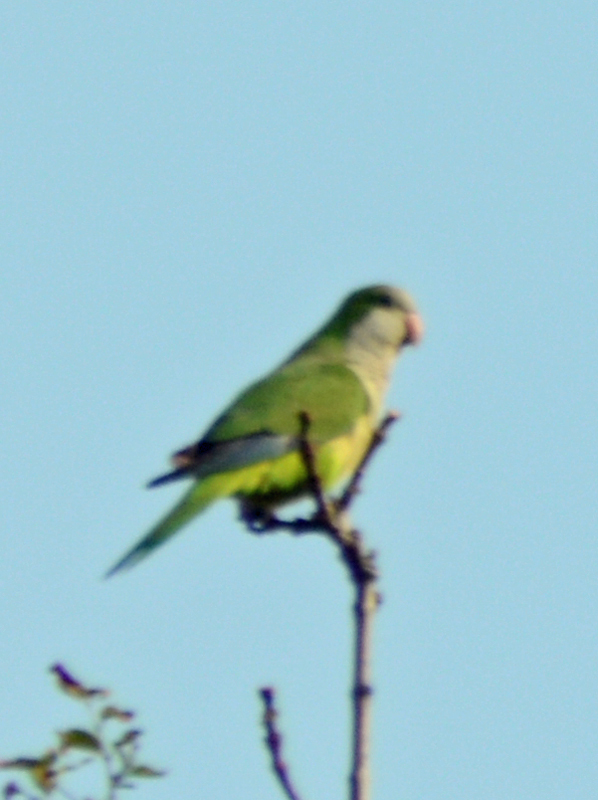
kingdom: Animalia
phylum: Chordata
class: Aves
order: Psittaciformes
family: Psittacidae
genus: Myiopsitta
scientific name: Myiopsitta monachus
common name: Monk parakeet
